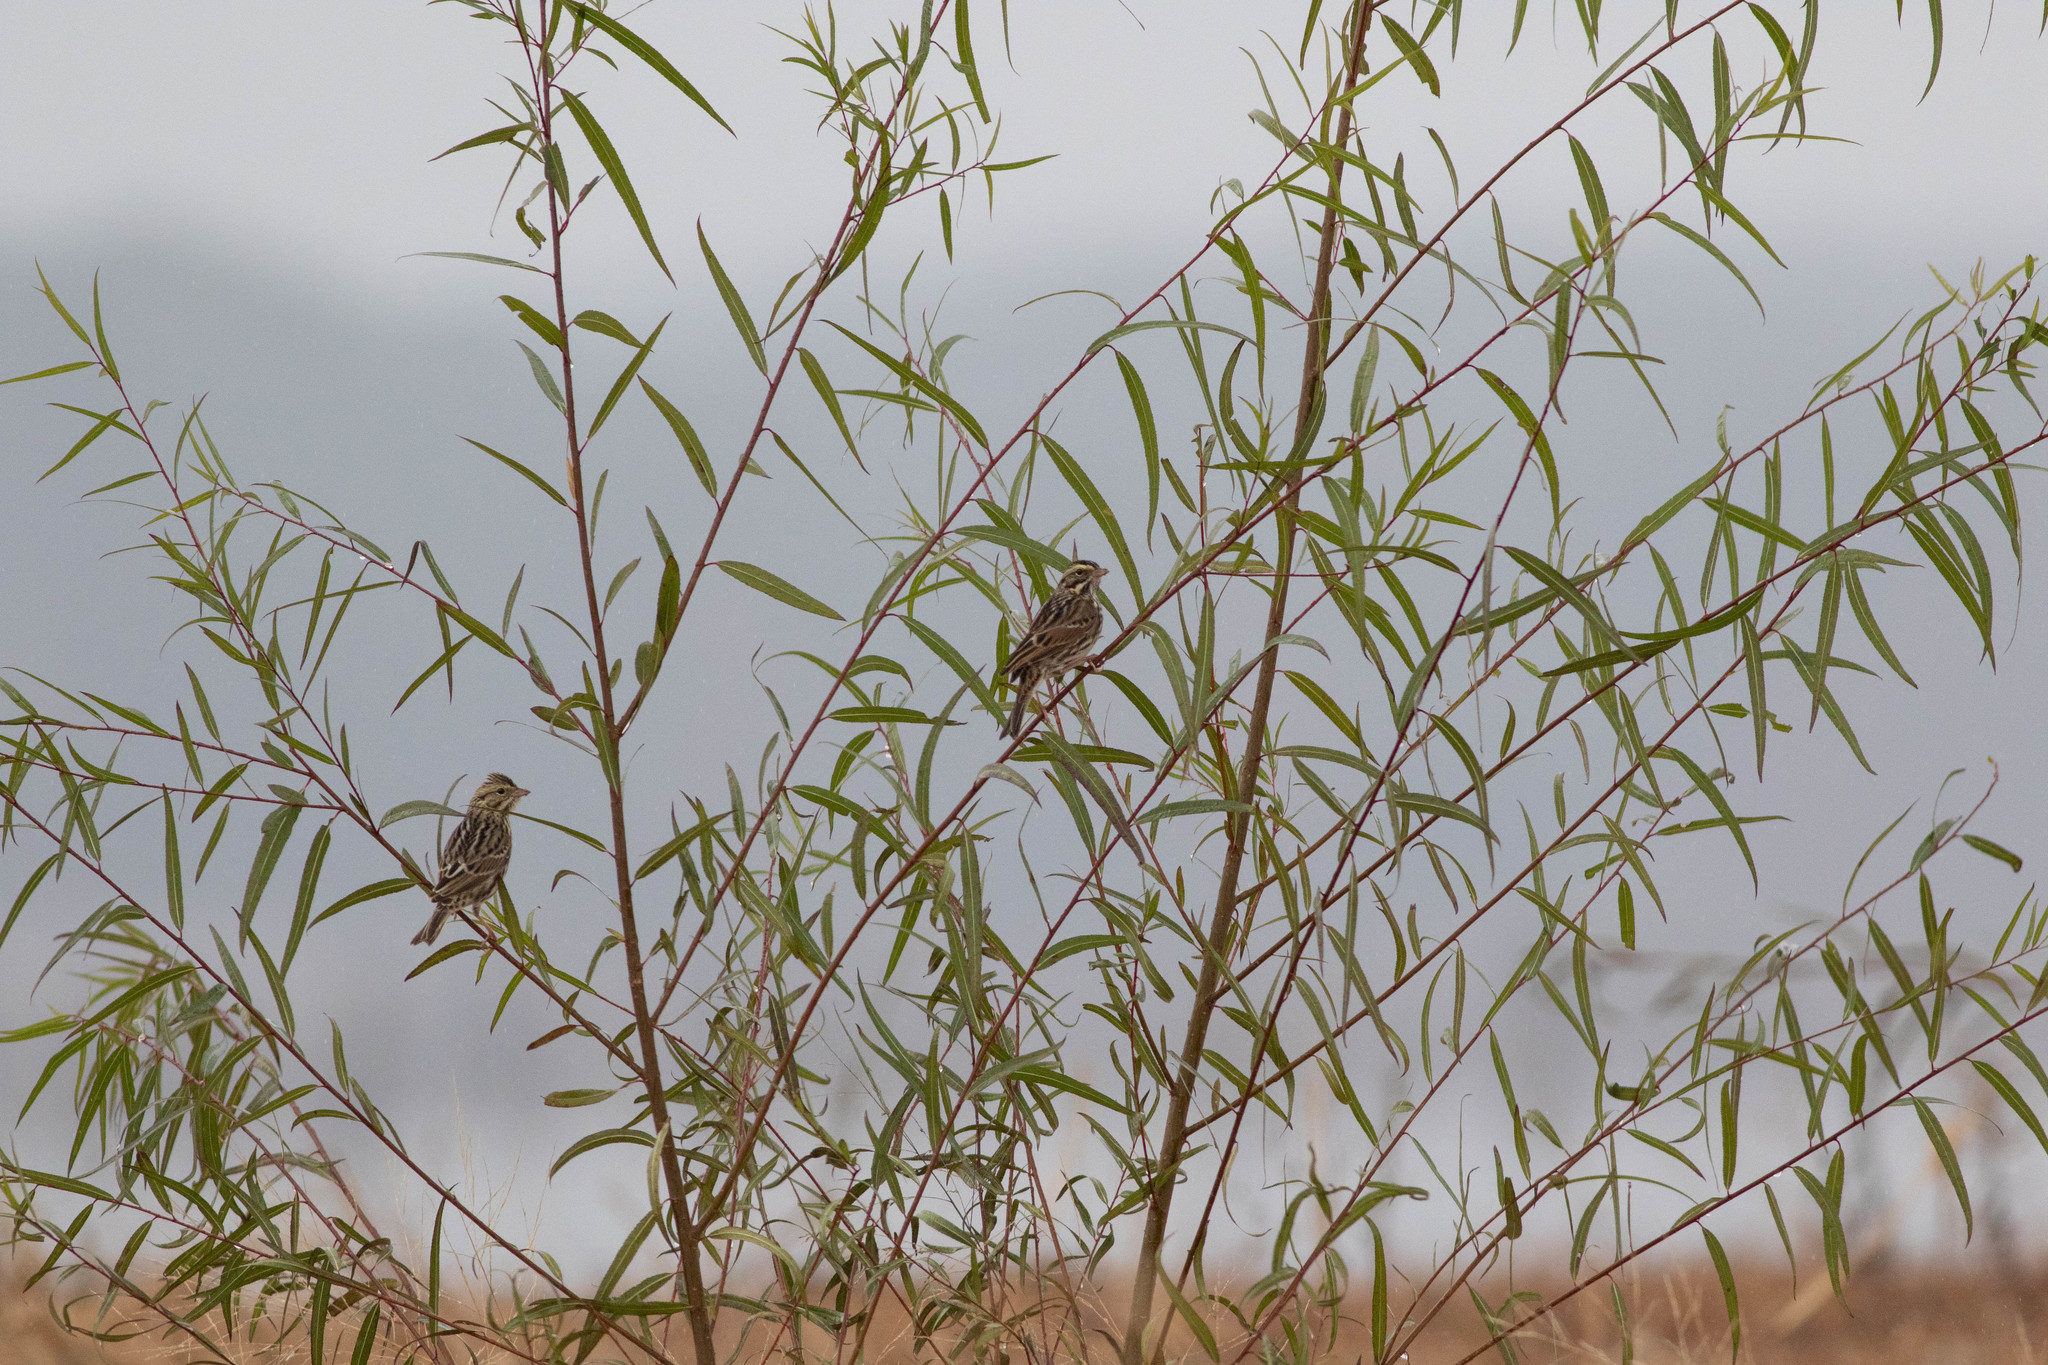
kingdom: Animalia
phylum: Chordata
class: Aves
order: Passeriformes
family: Passerellidae
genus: Passerculus
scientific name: Passerculus sandwichensis
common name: Savannah sparrow
